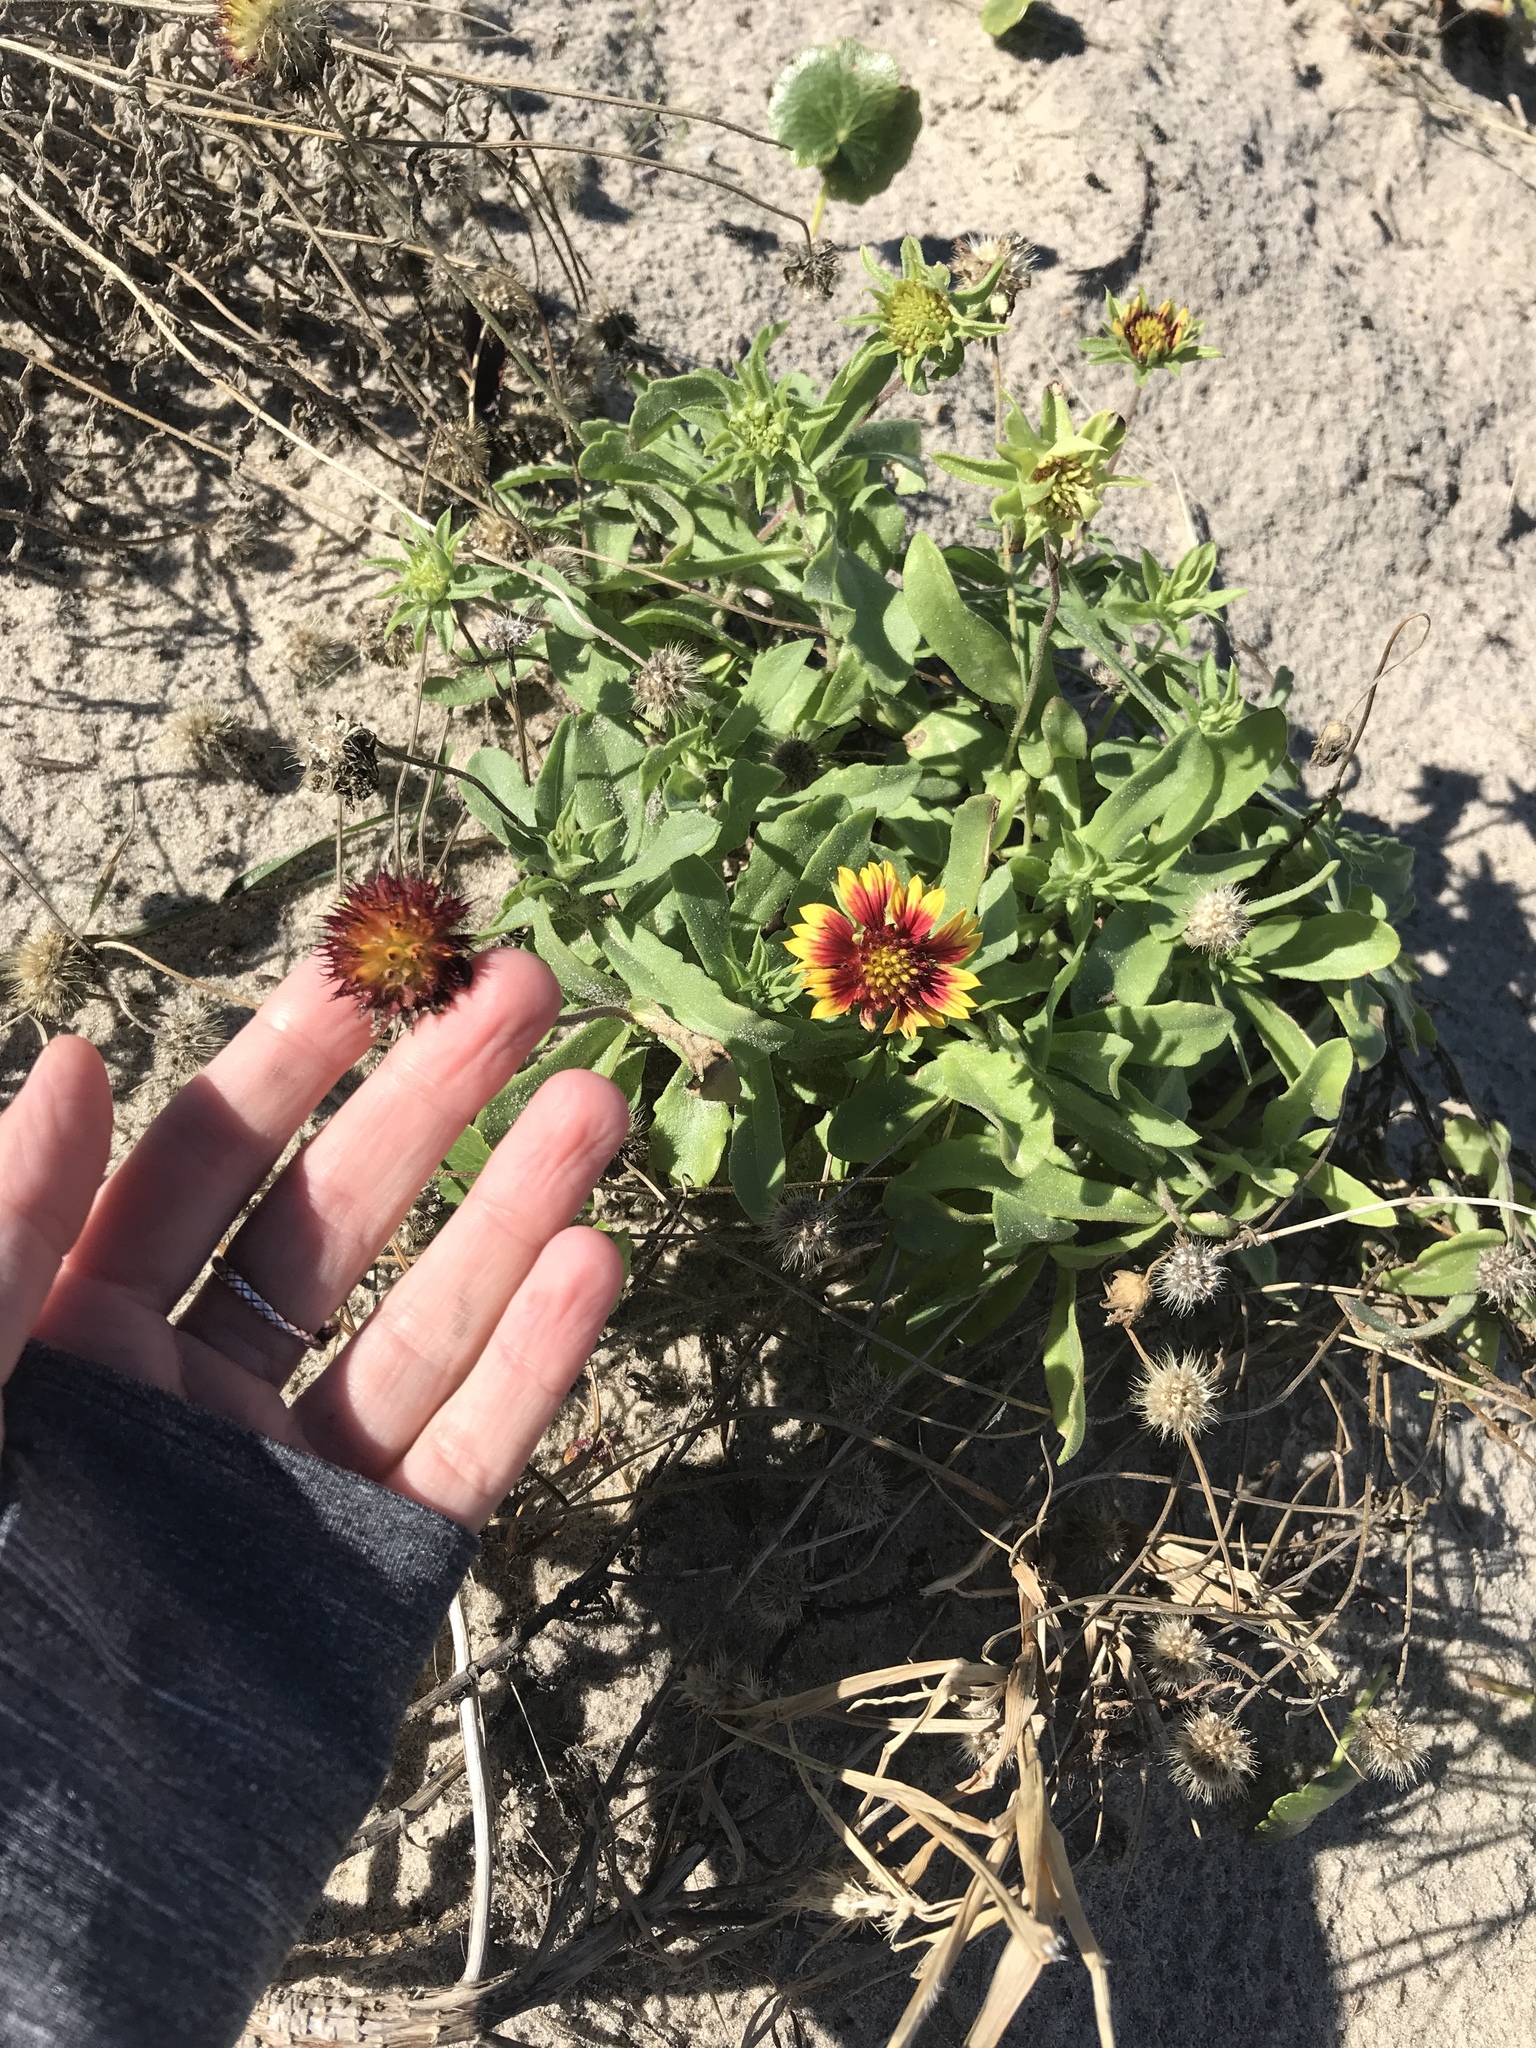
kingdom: Plantae
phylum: Tracheophyta
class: Magnoliopsida
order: Asterales
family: Asteraceae
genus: Gaillardia
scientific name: Gaillardia pulchella
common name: Firewheel
